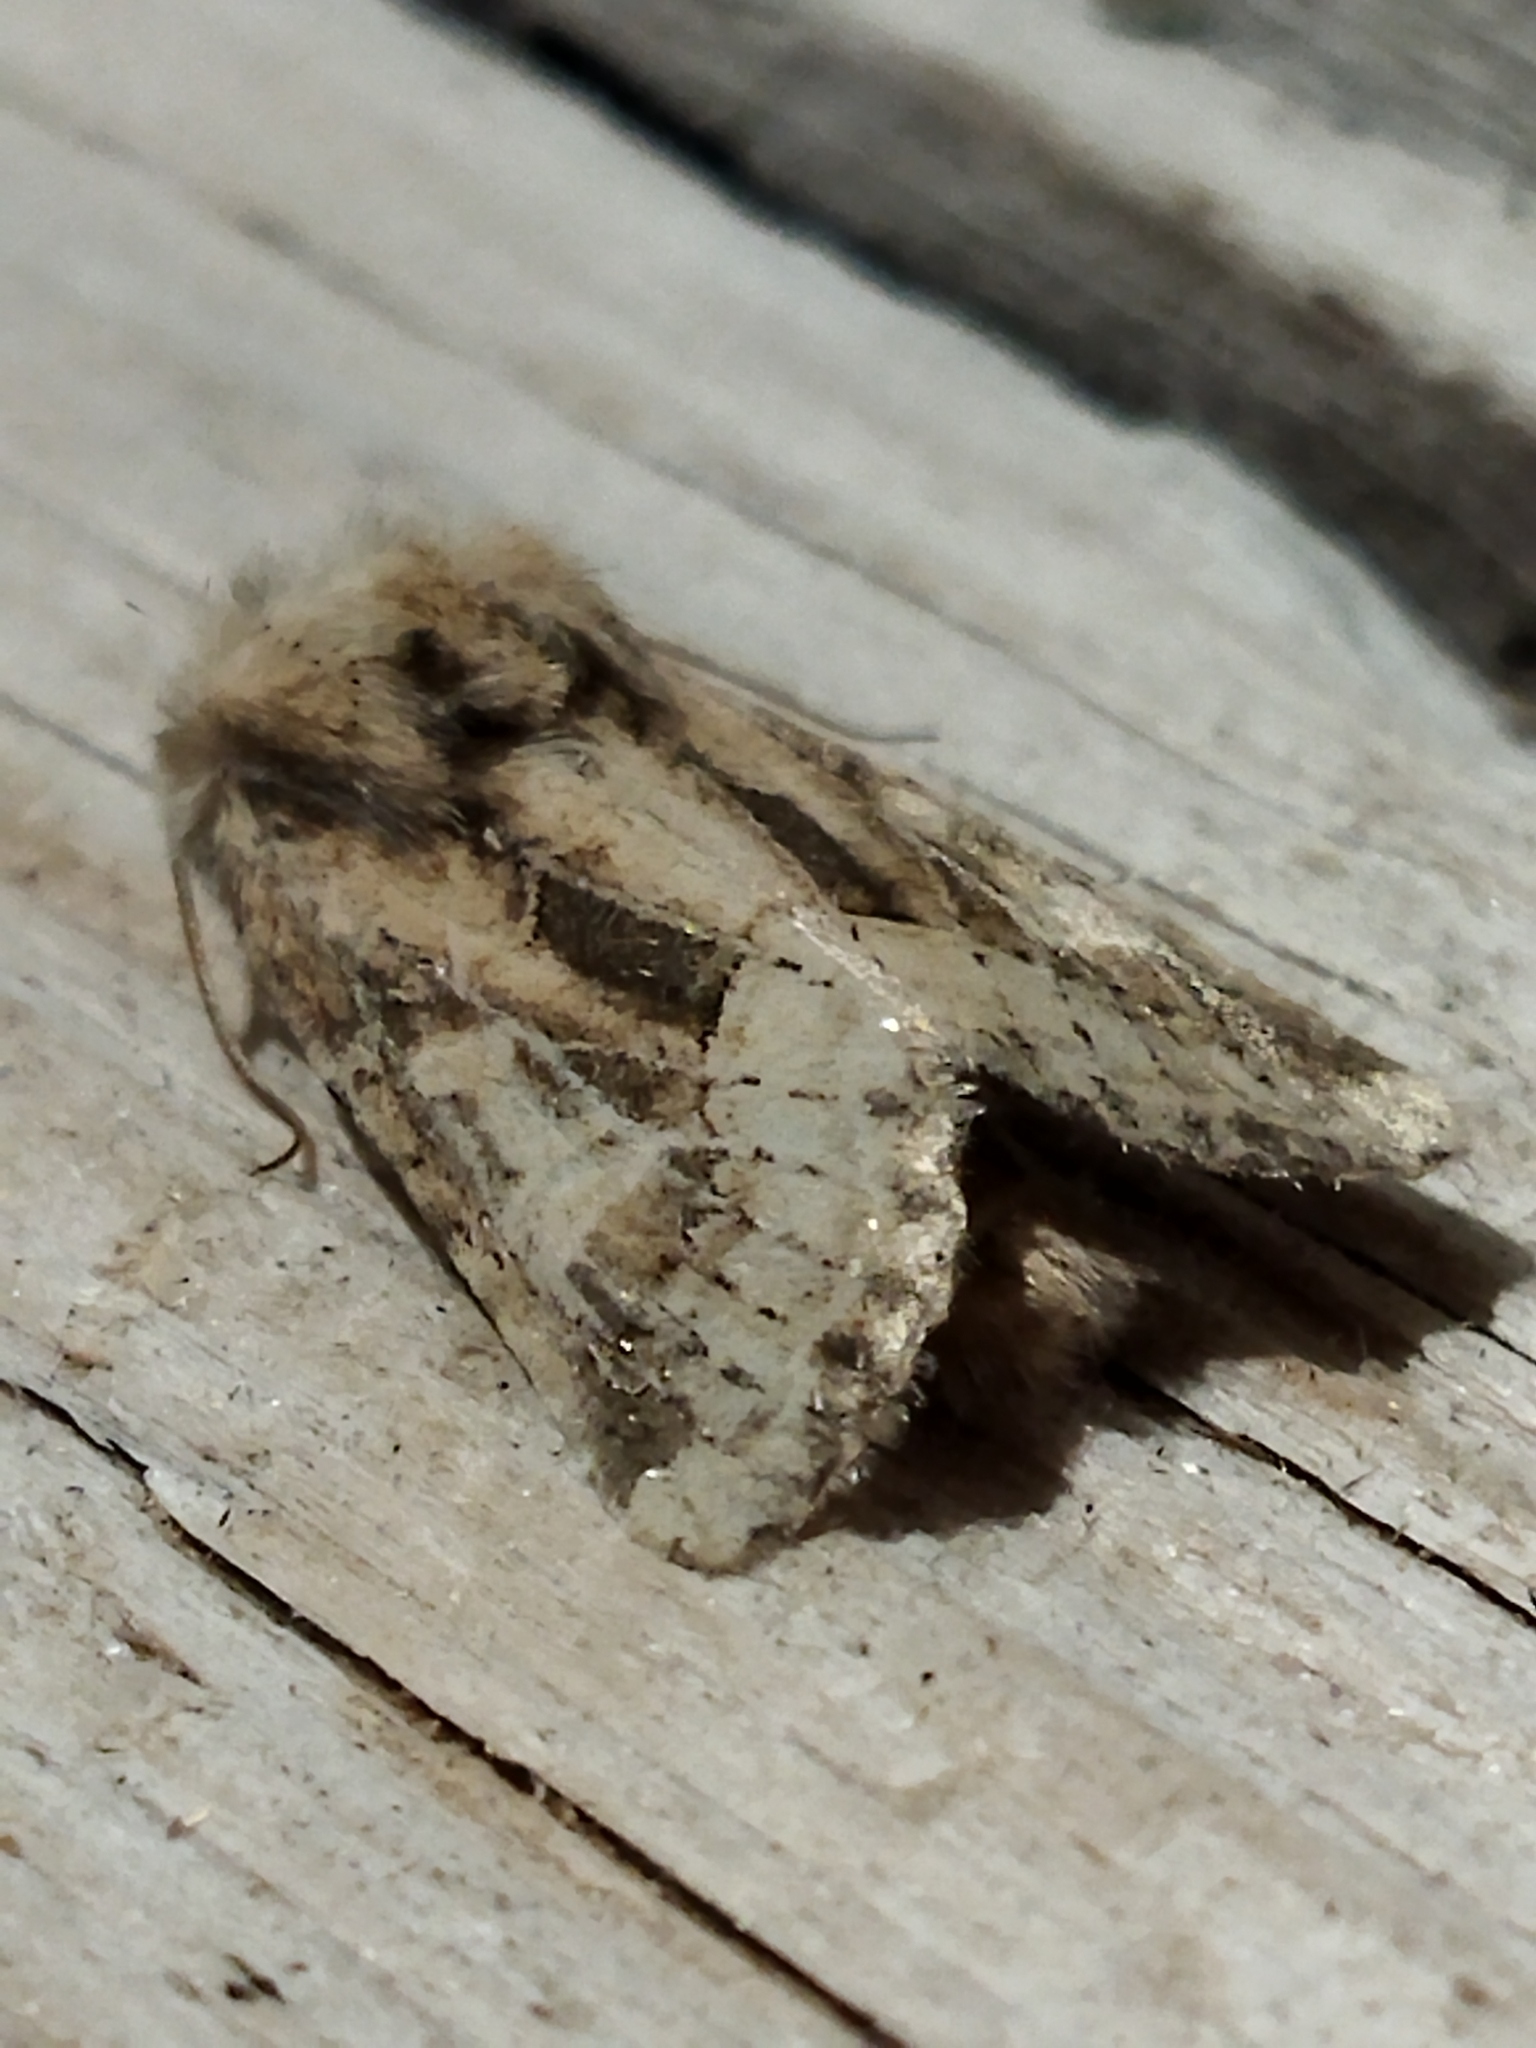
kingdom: Animalia
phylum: Arthropoda
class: Insecta
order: Lepidoptera
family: Noctuidae
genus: Luperina
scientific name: Luperina dumerilii
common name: Dumeril's rustic
